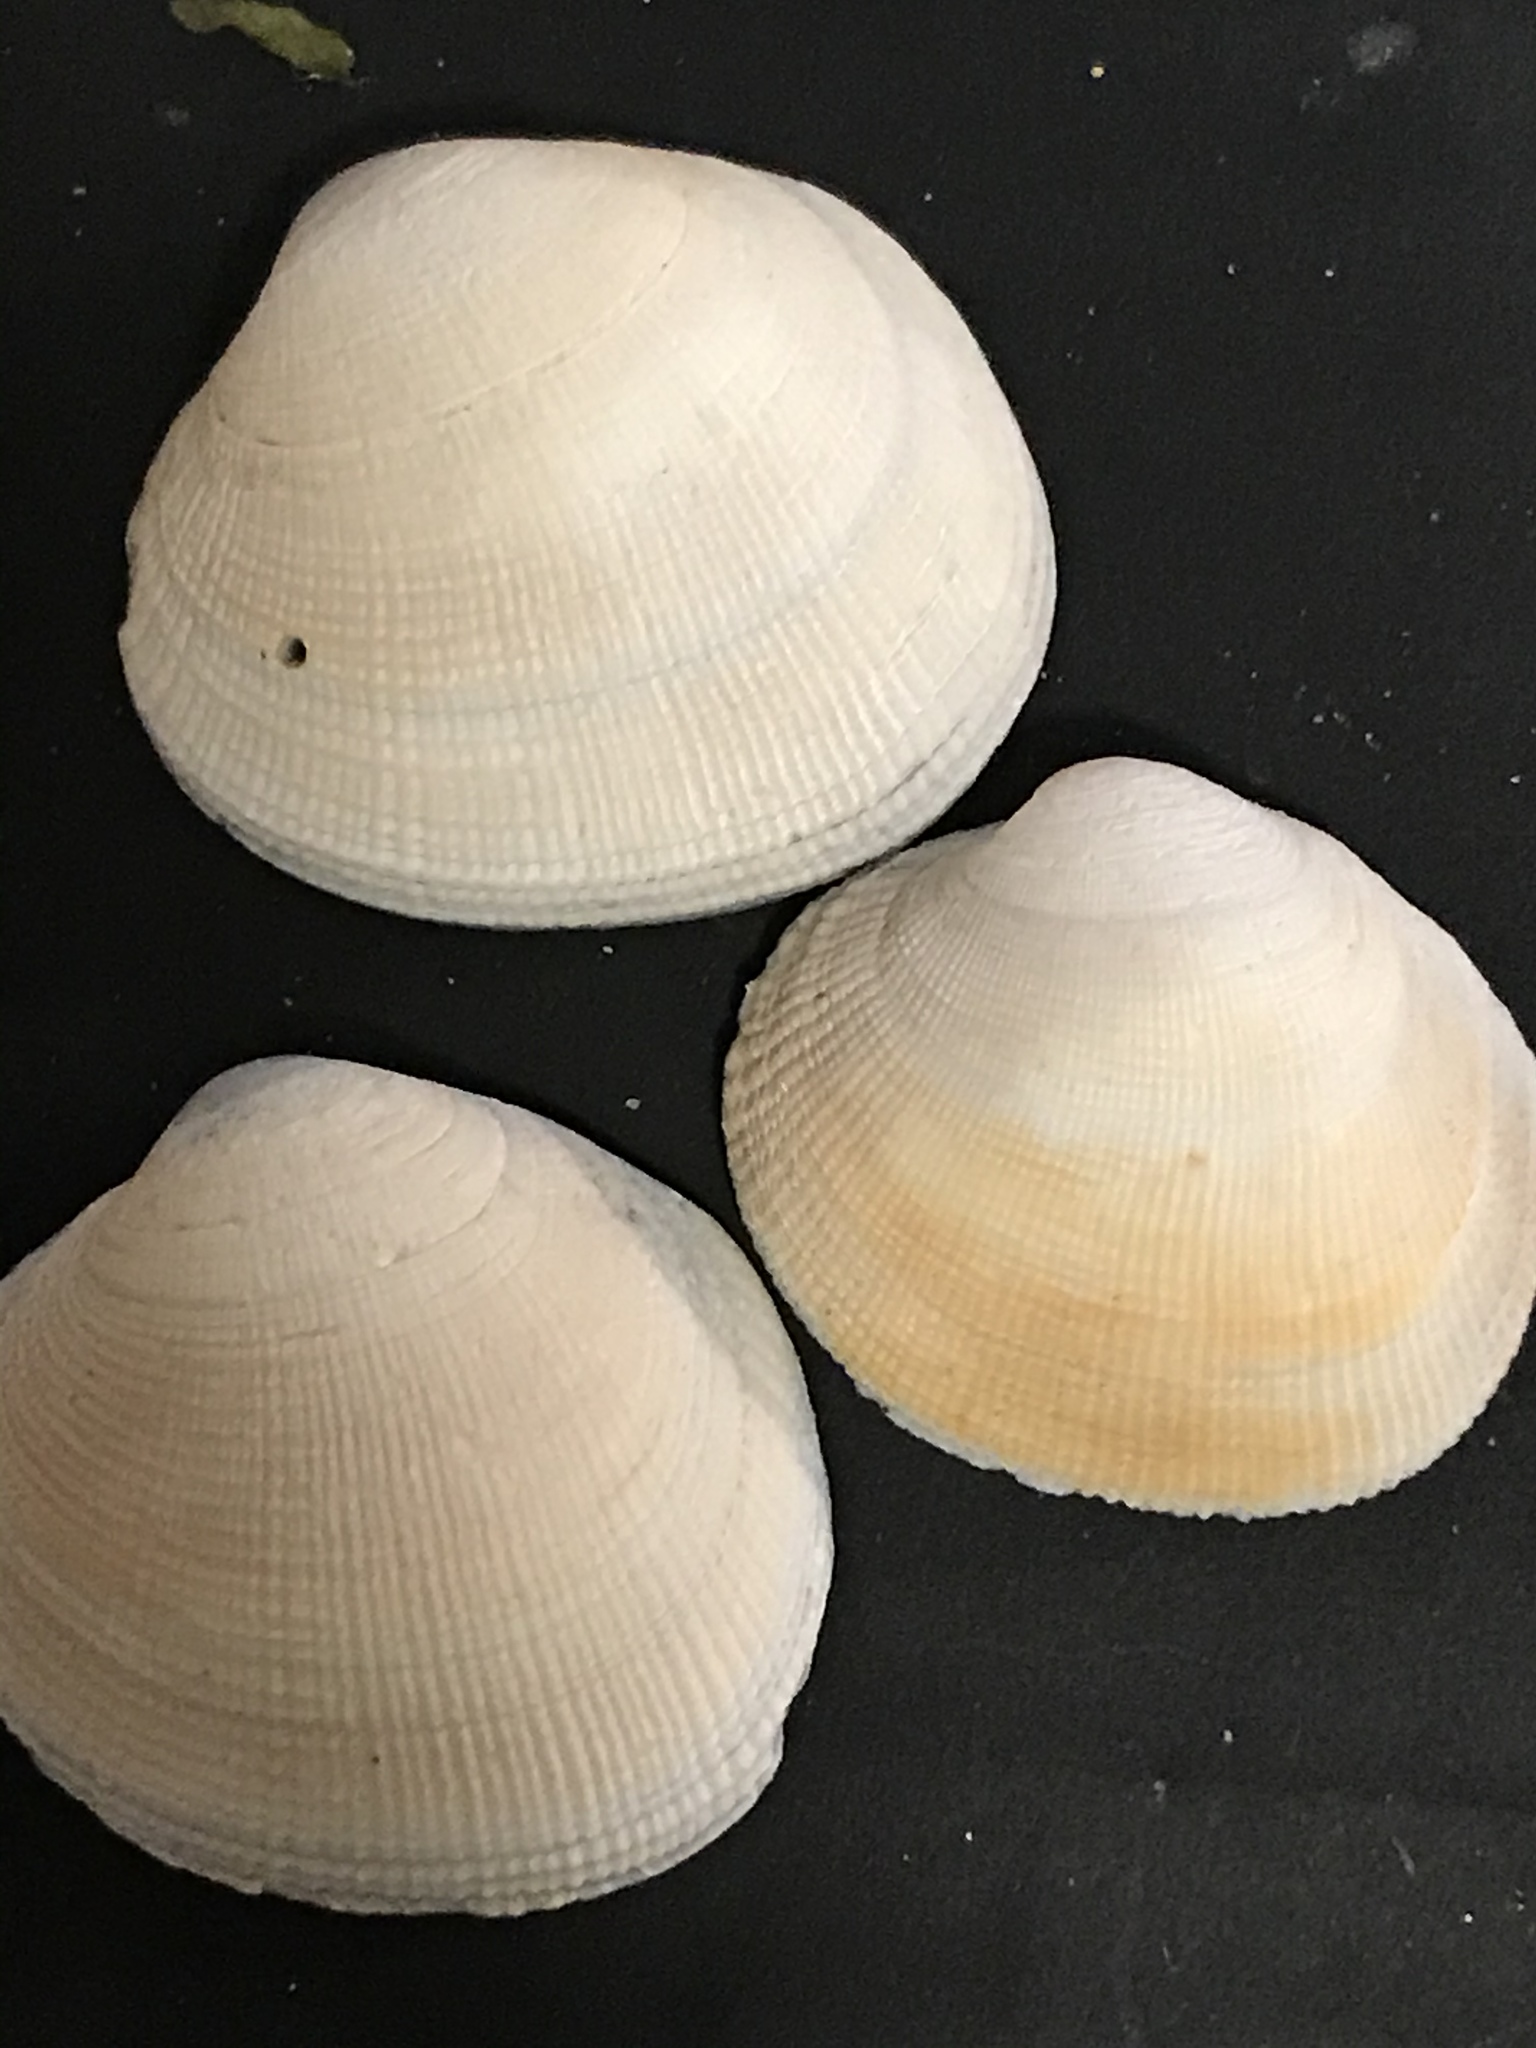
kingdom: Animalia
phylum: Mollusca
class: Bivalvia
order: Venerida
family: Veneridae
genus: Leukoma
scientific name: Leukoma staminea
